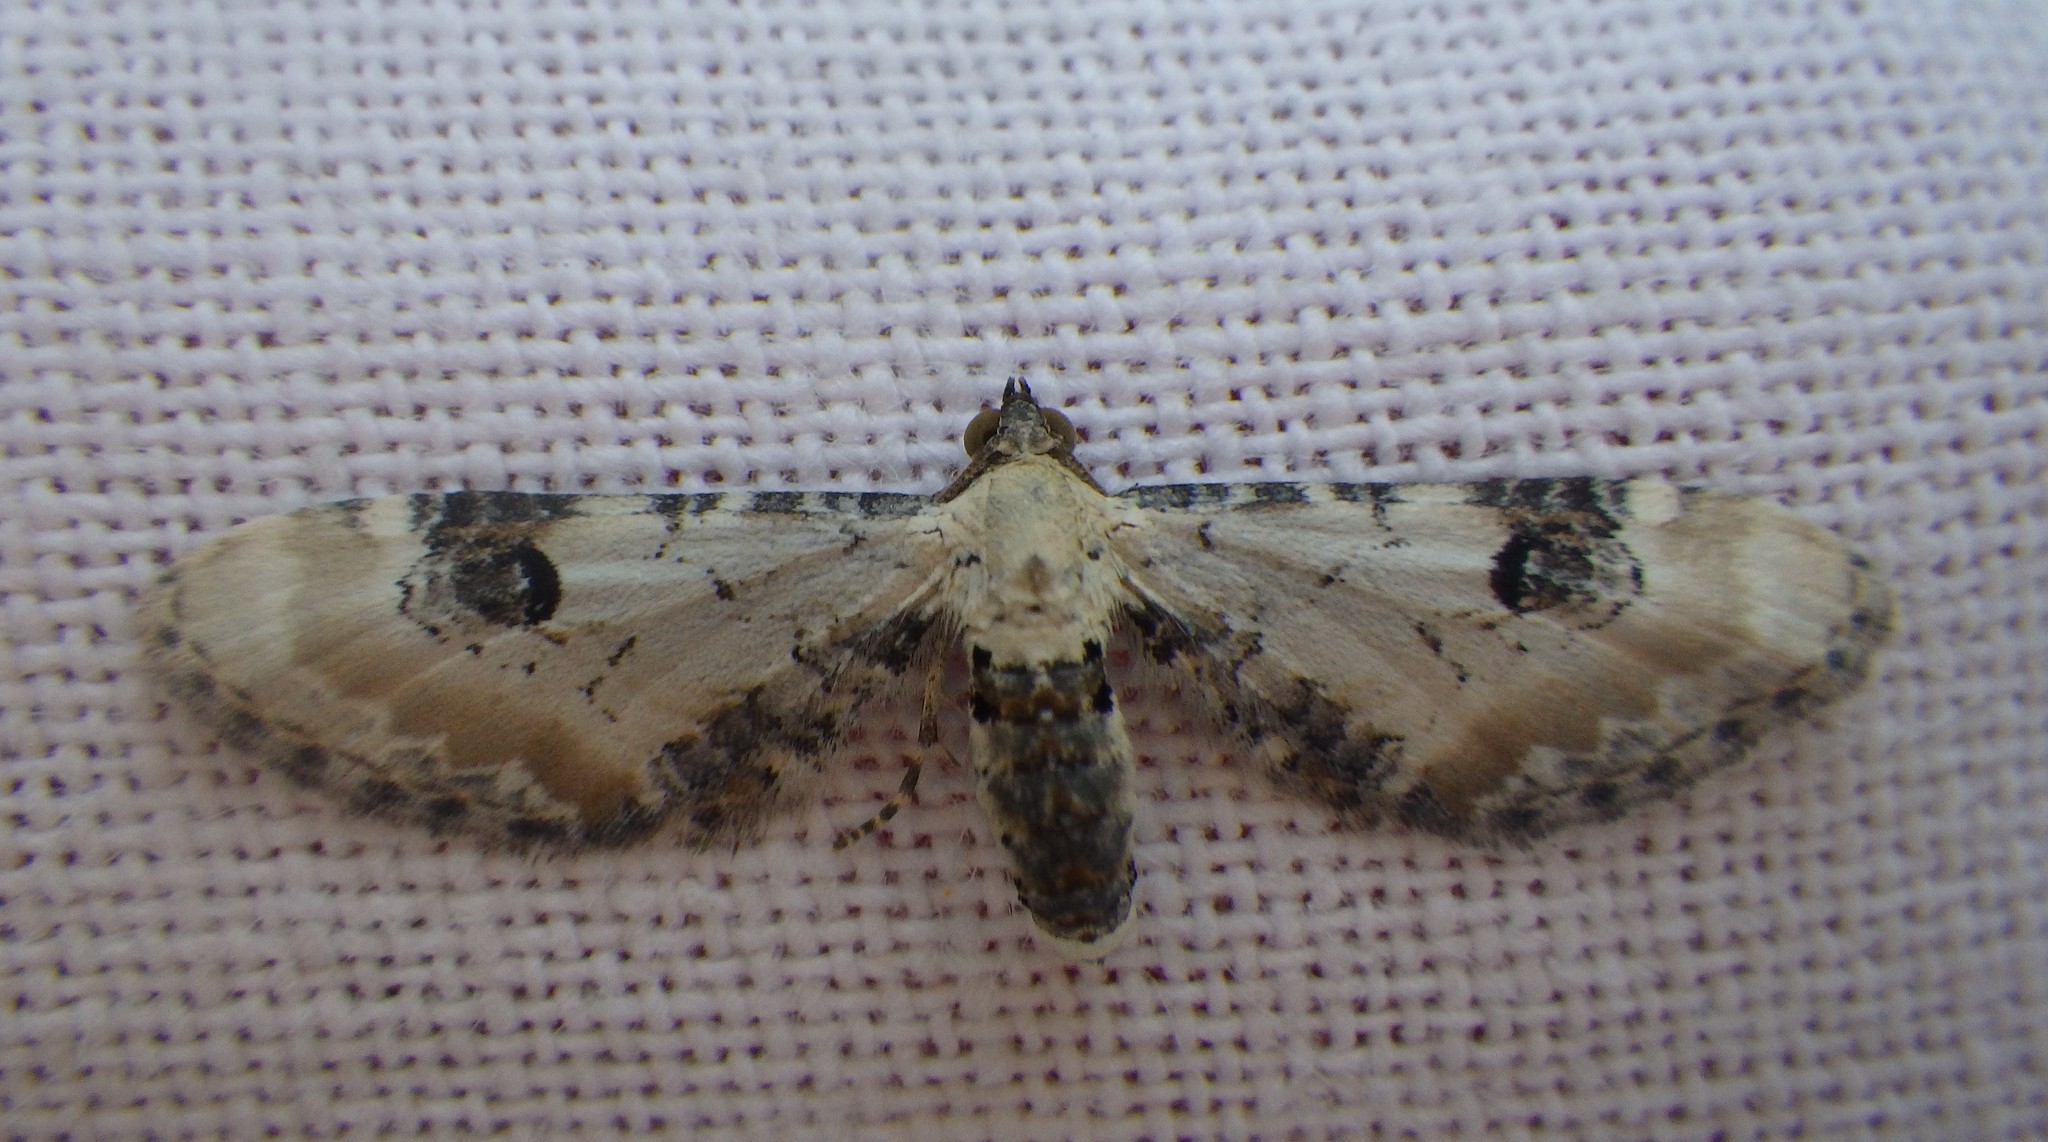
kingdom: Animalia
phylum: Arthropoda
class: Insecta
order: Lepidoptera
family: Geometridae
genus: Eupithecia
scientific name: Eupithecia centaureata
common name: Lime-speck pug
